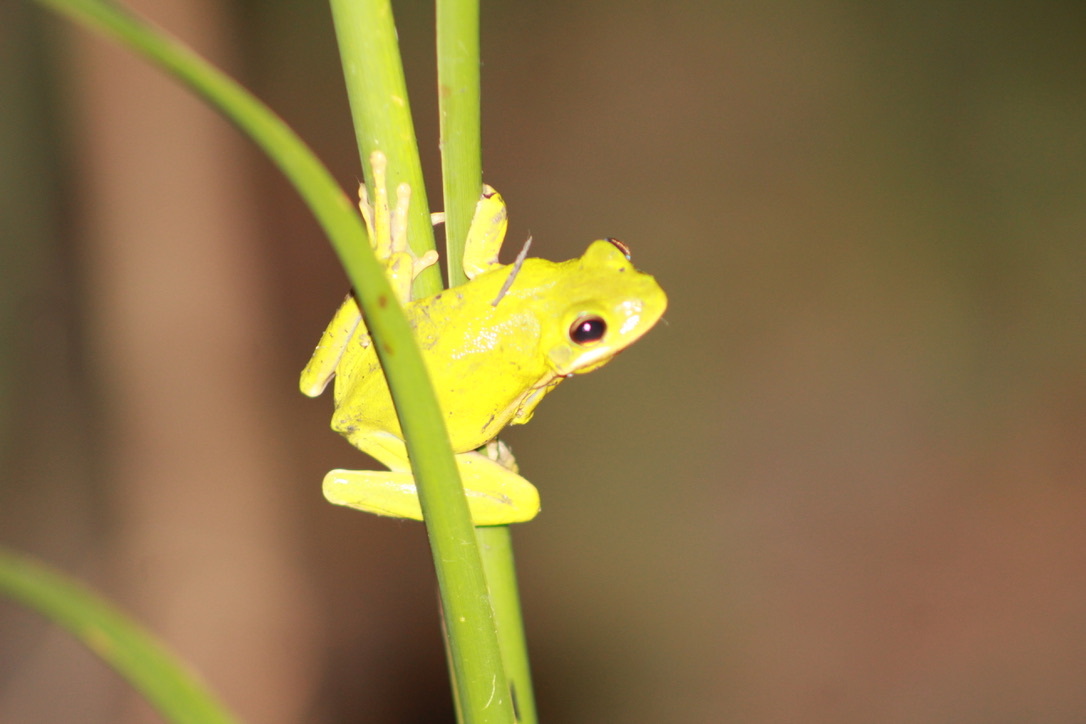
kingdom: Animalia
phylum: Chordata
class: Amphibia
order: Anura
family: Hylidae
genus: Dryophytes
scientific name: Dryophytes cinereus
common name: Green treefrog
